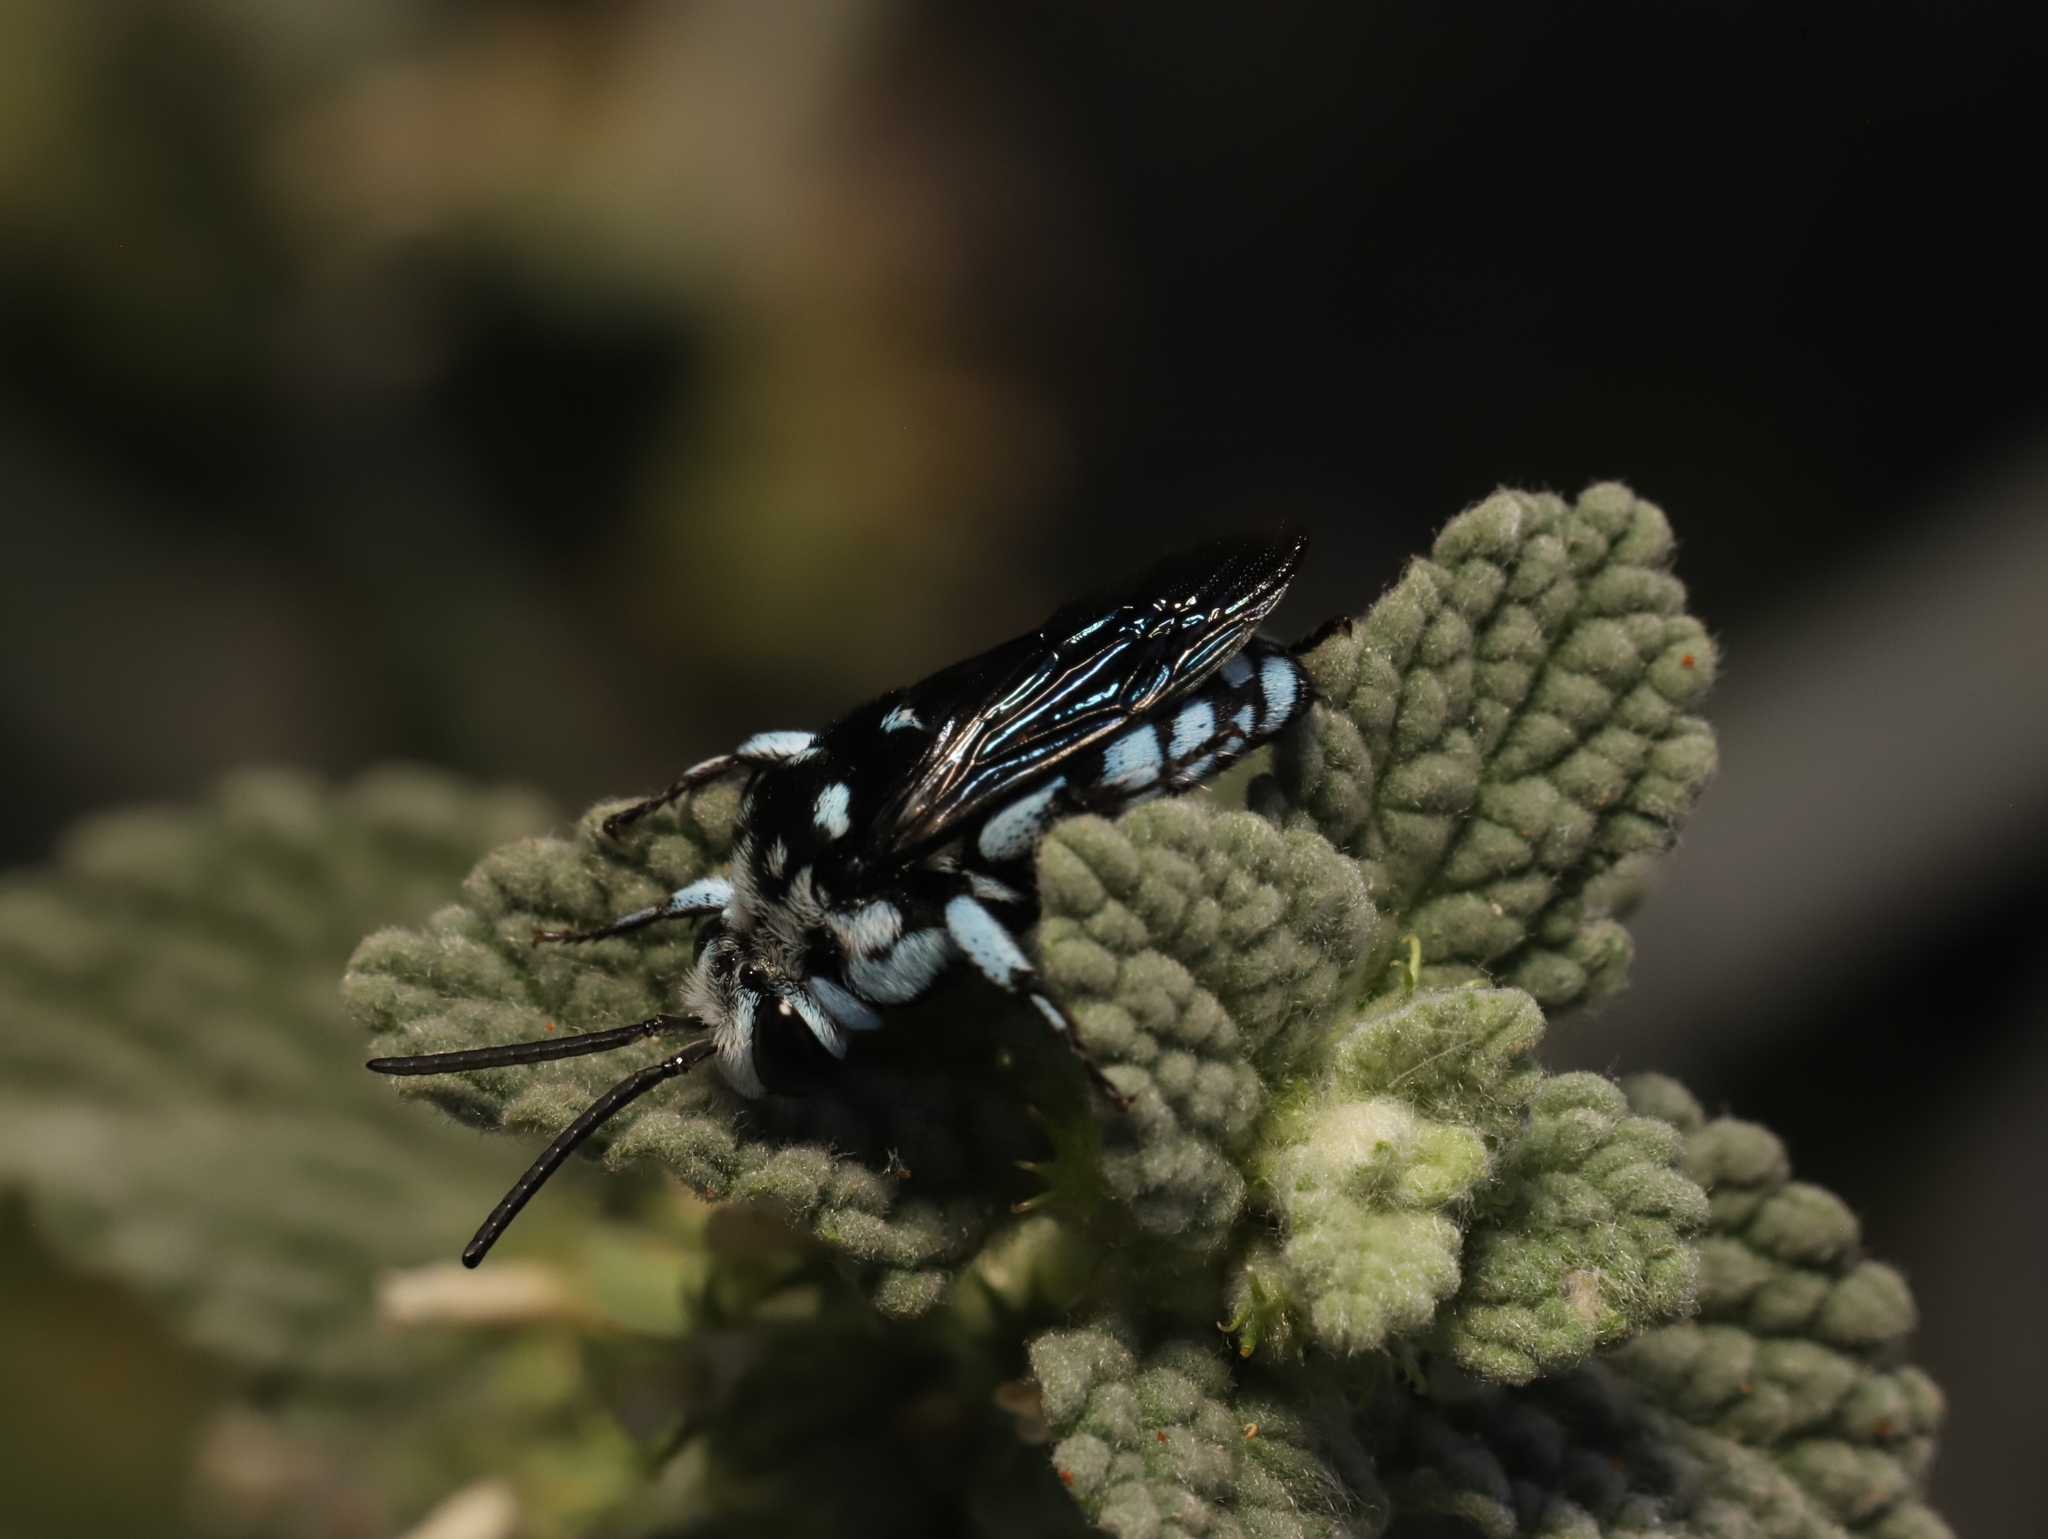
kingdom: Animalia
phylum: Arthropoda
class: Insecta
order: Hymenoptera
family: Apidae
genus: Thyreus
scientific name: Thyreus caeruleopunctatus
